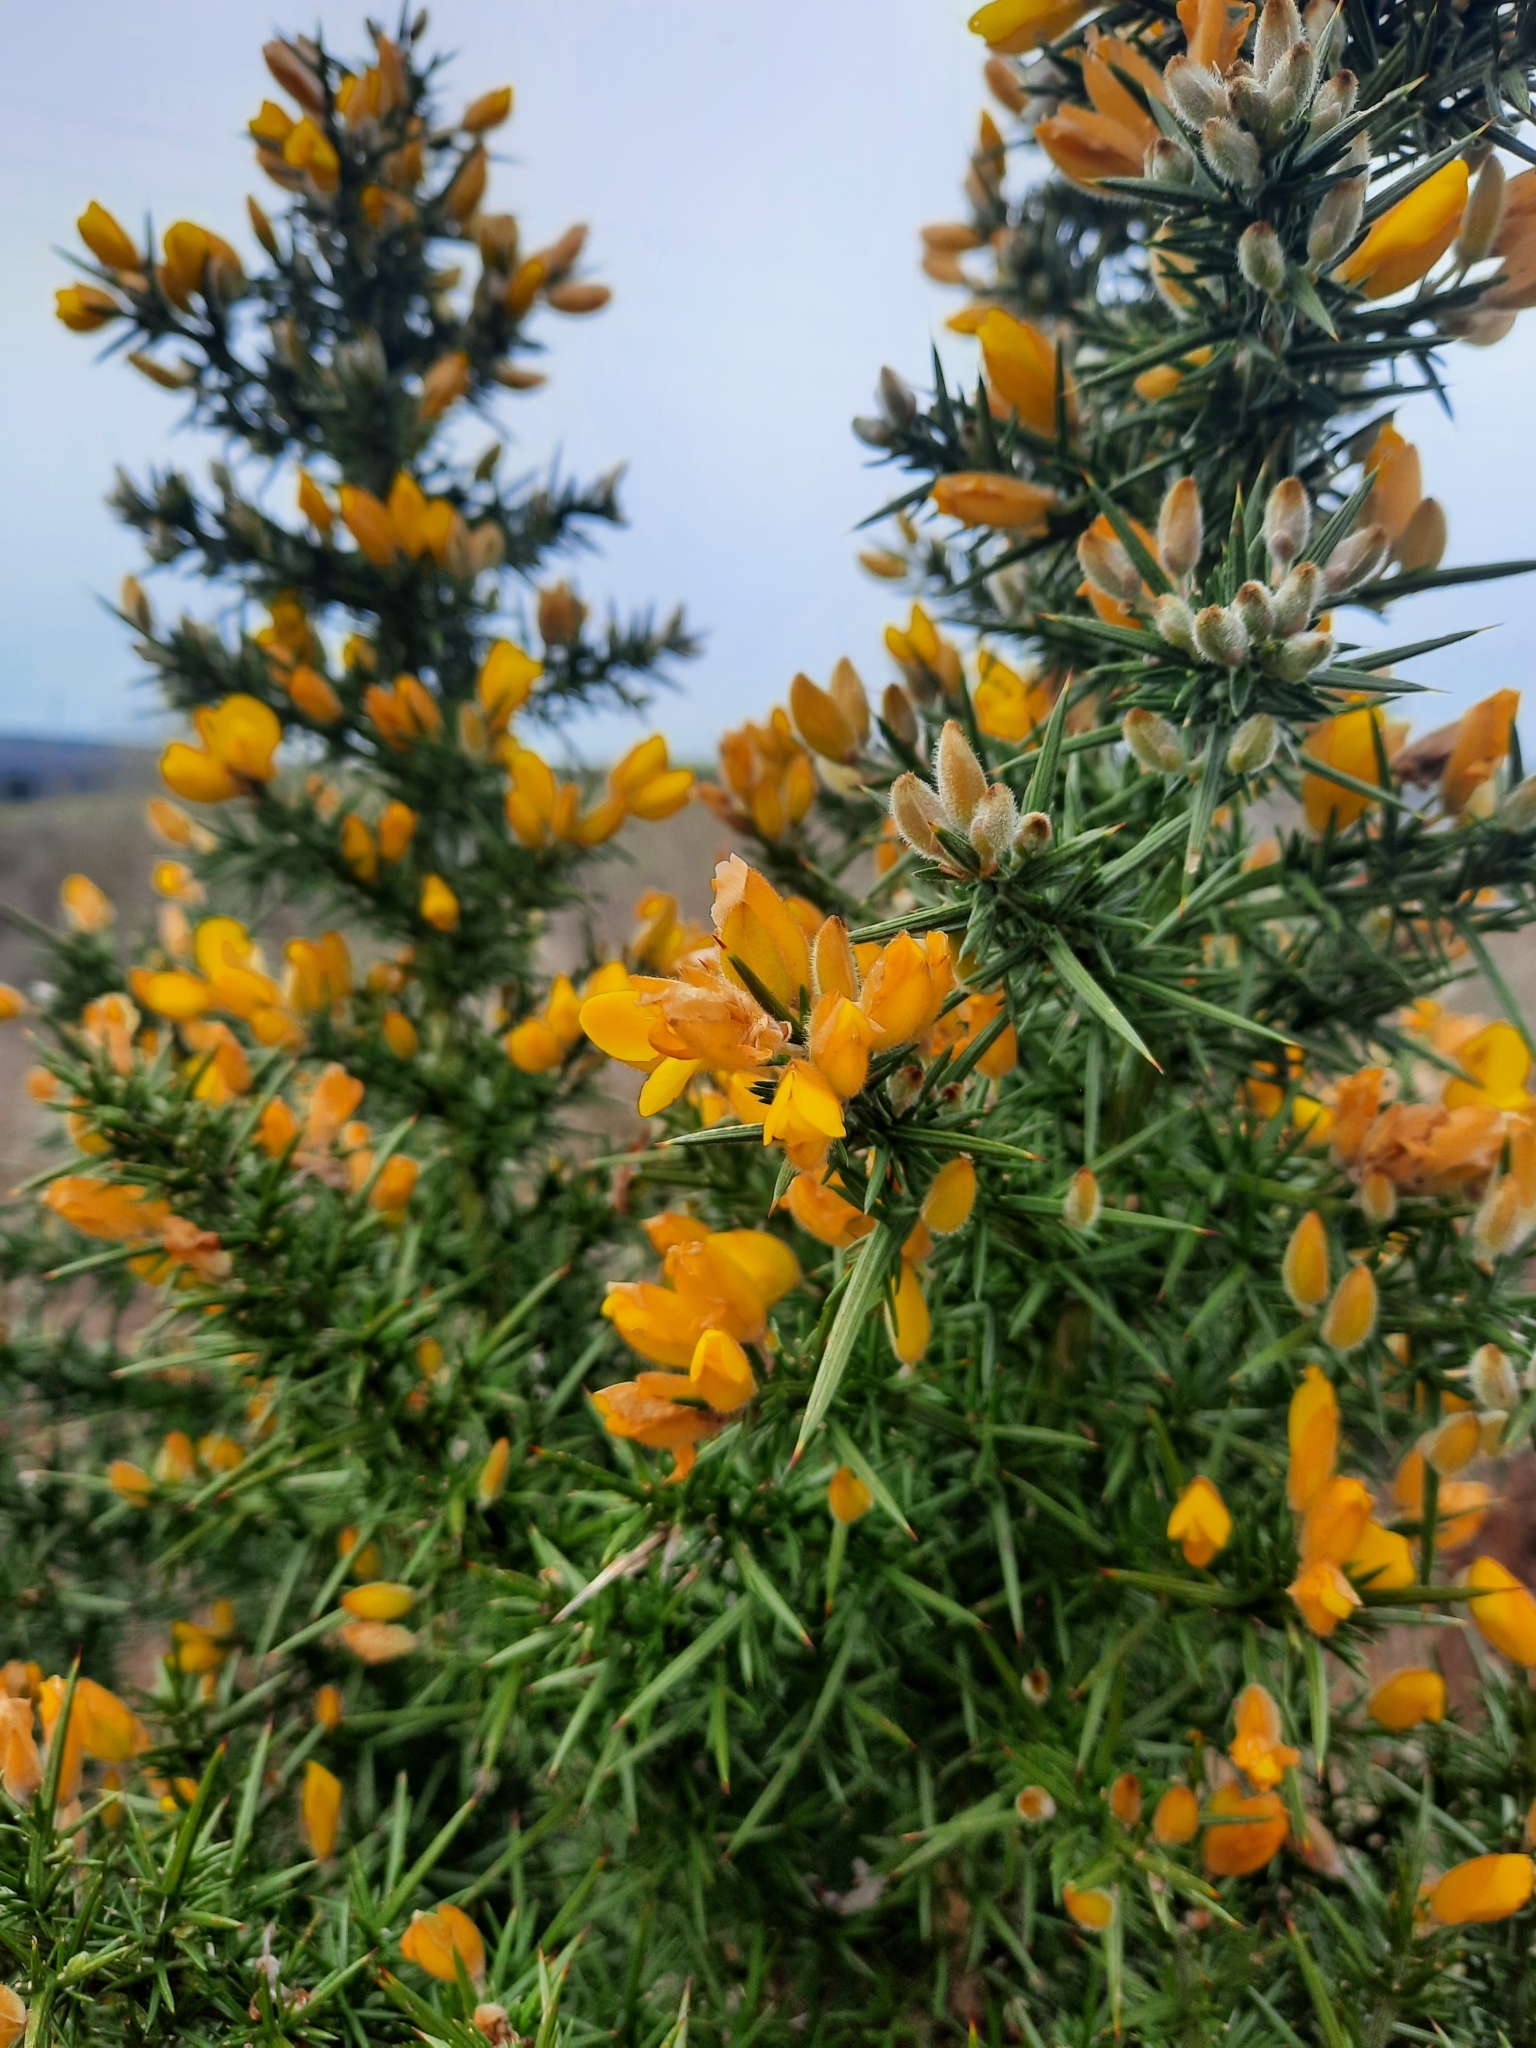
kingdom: Plantae
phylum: Tracheophyta
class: Magnoliopsida
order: Fabales
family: Fabaceae
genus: Ulex
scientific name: Ulex europaeus
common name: Common gorse
